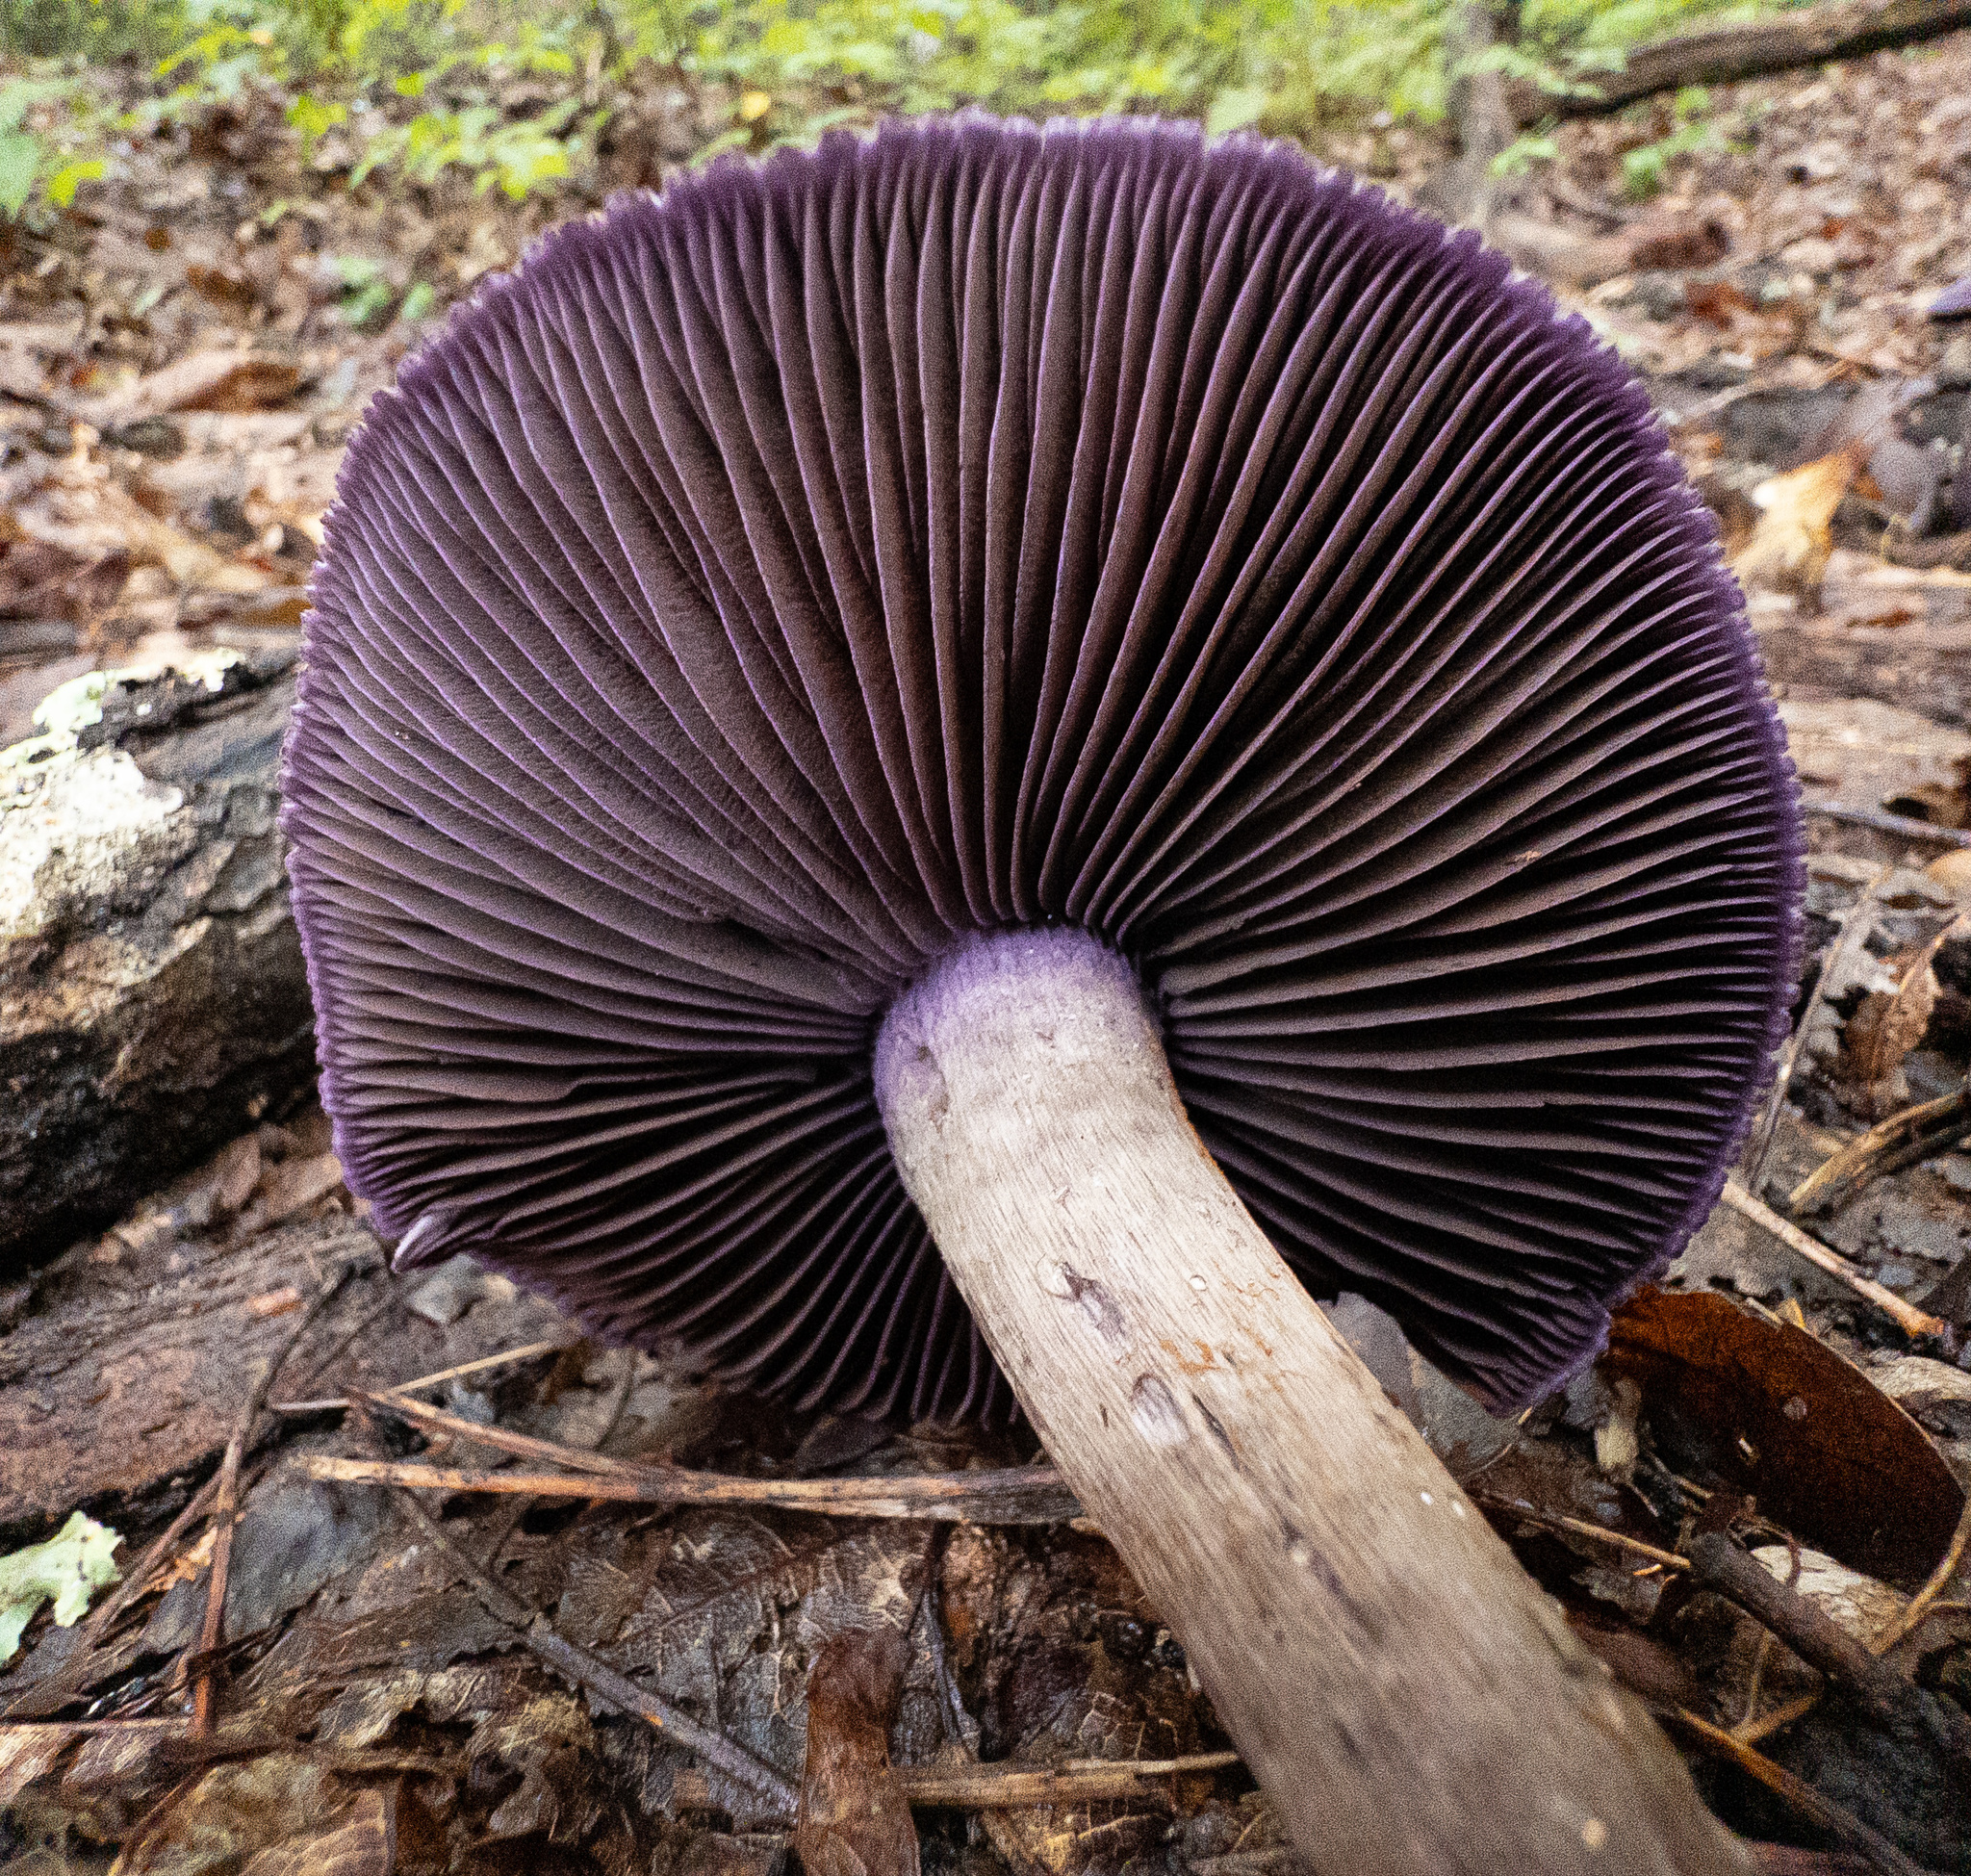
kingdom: Fungi
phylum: Basidiomycota
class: Agaricomycetes
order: Agaricales
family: Cortinariaceae
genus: Cortinarius
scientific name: Cortinarius violaceus
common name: Violet webcap
